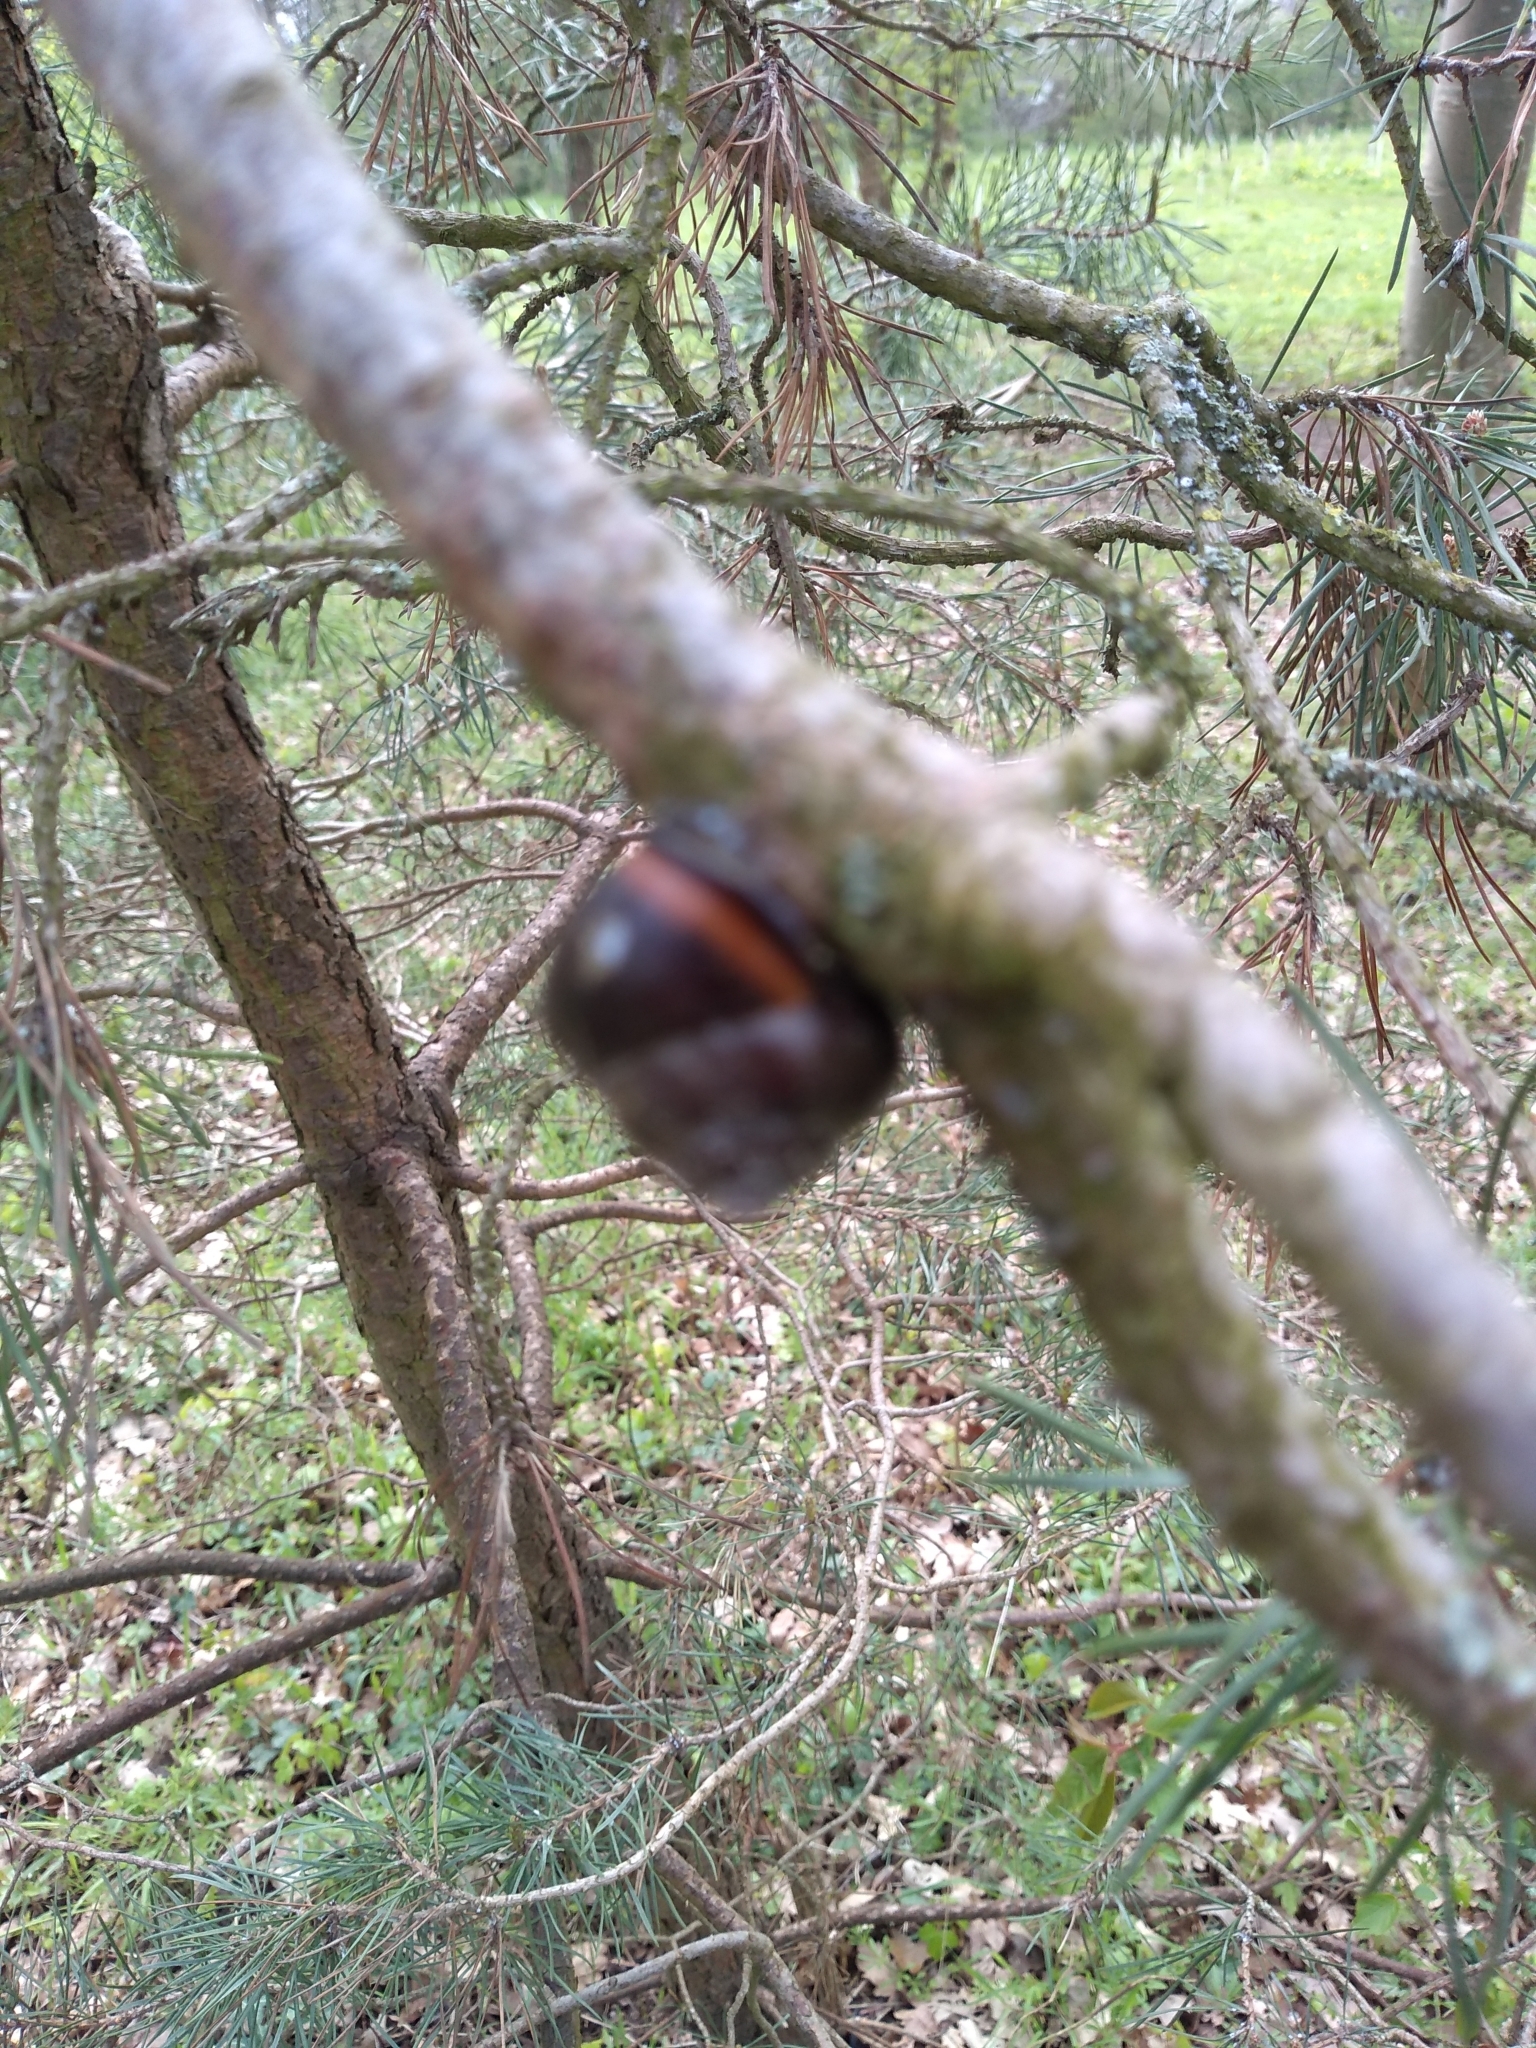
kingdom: Animalia
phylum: Mollusca
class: Gastropoda
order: Stylommatophora
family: Helicidae
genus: Cepaea
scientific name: Cepaea nemoralis
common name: Grovesnail
